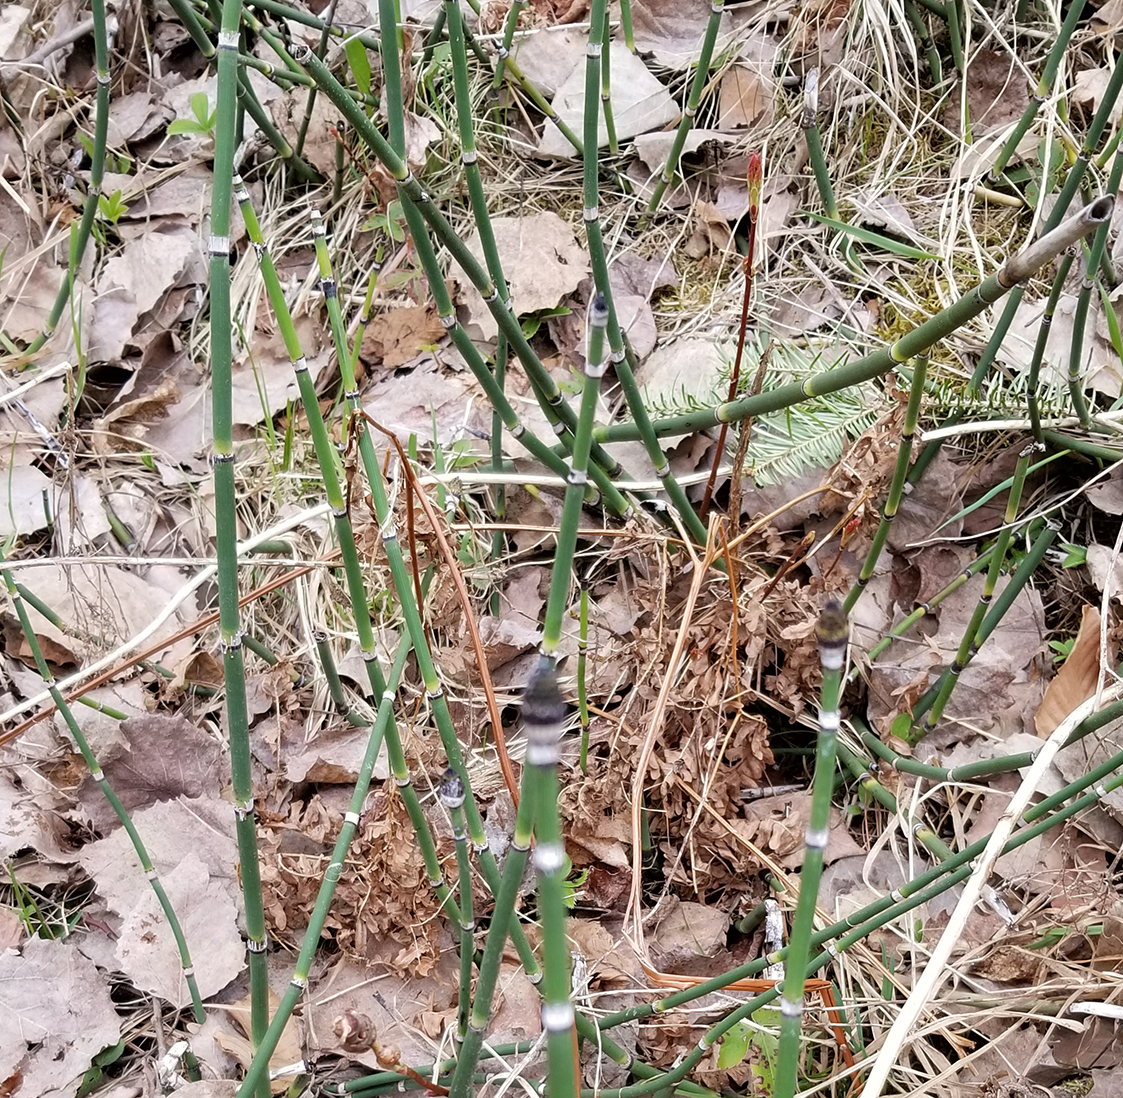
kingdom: Plantae
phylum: Tracheophyta
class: Polypodiopsida
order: Equisetales
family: Equisetaceae
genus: Equisetum
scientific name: Equisetum praealtum
